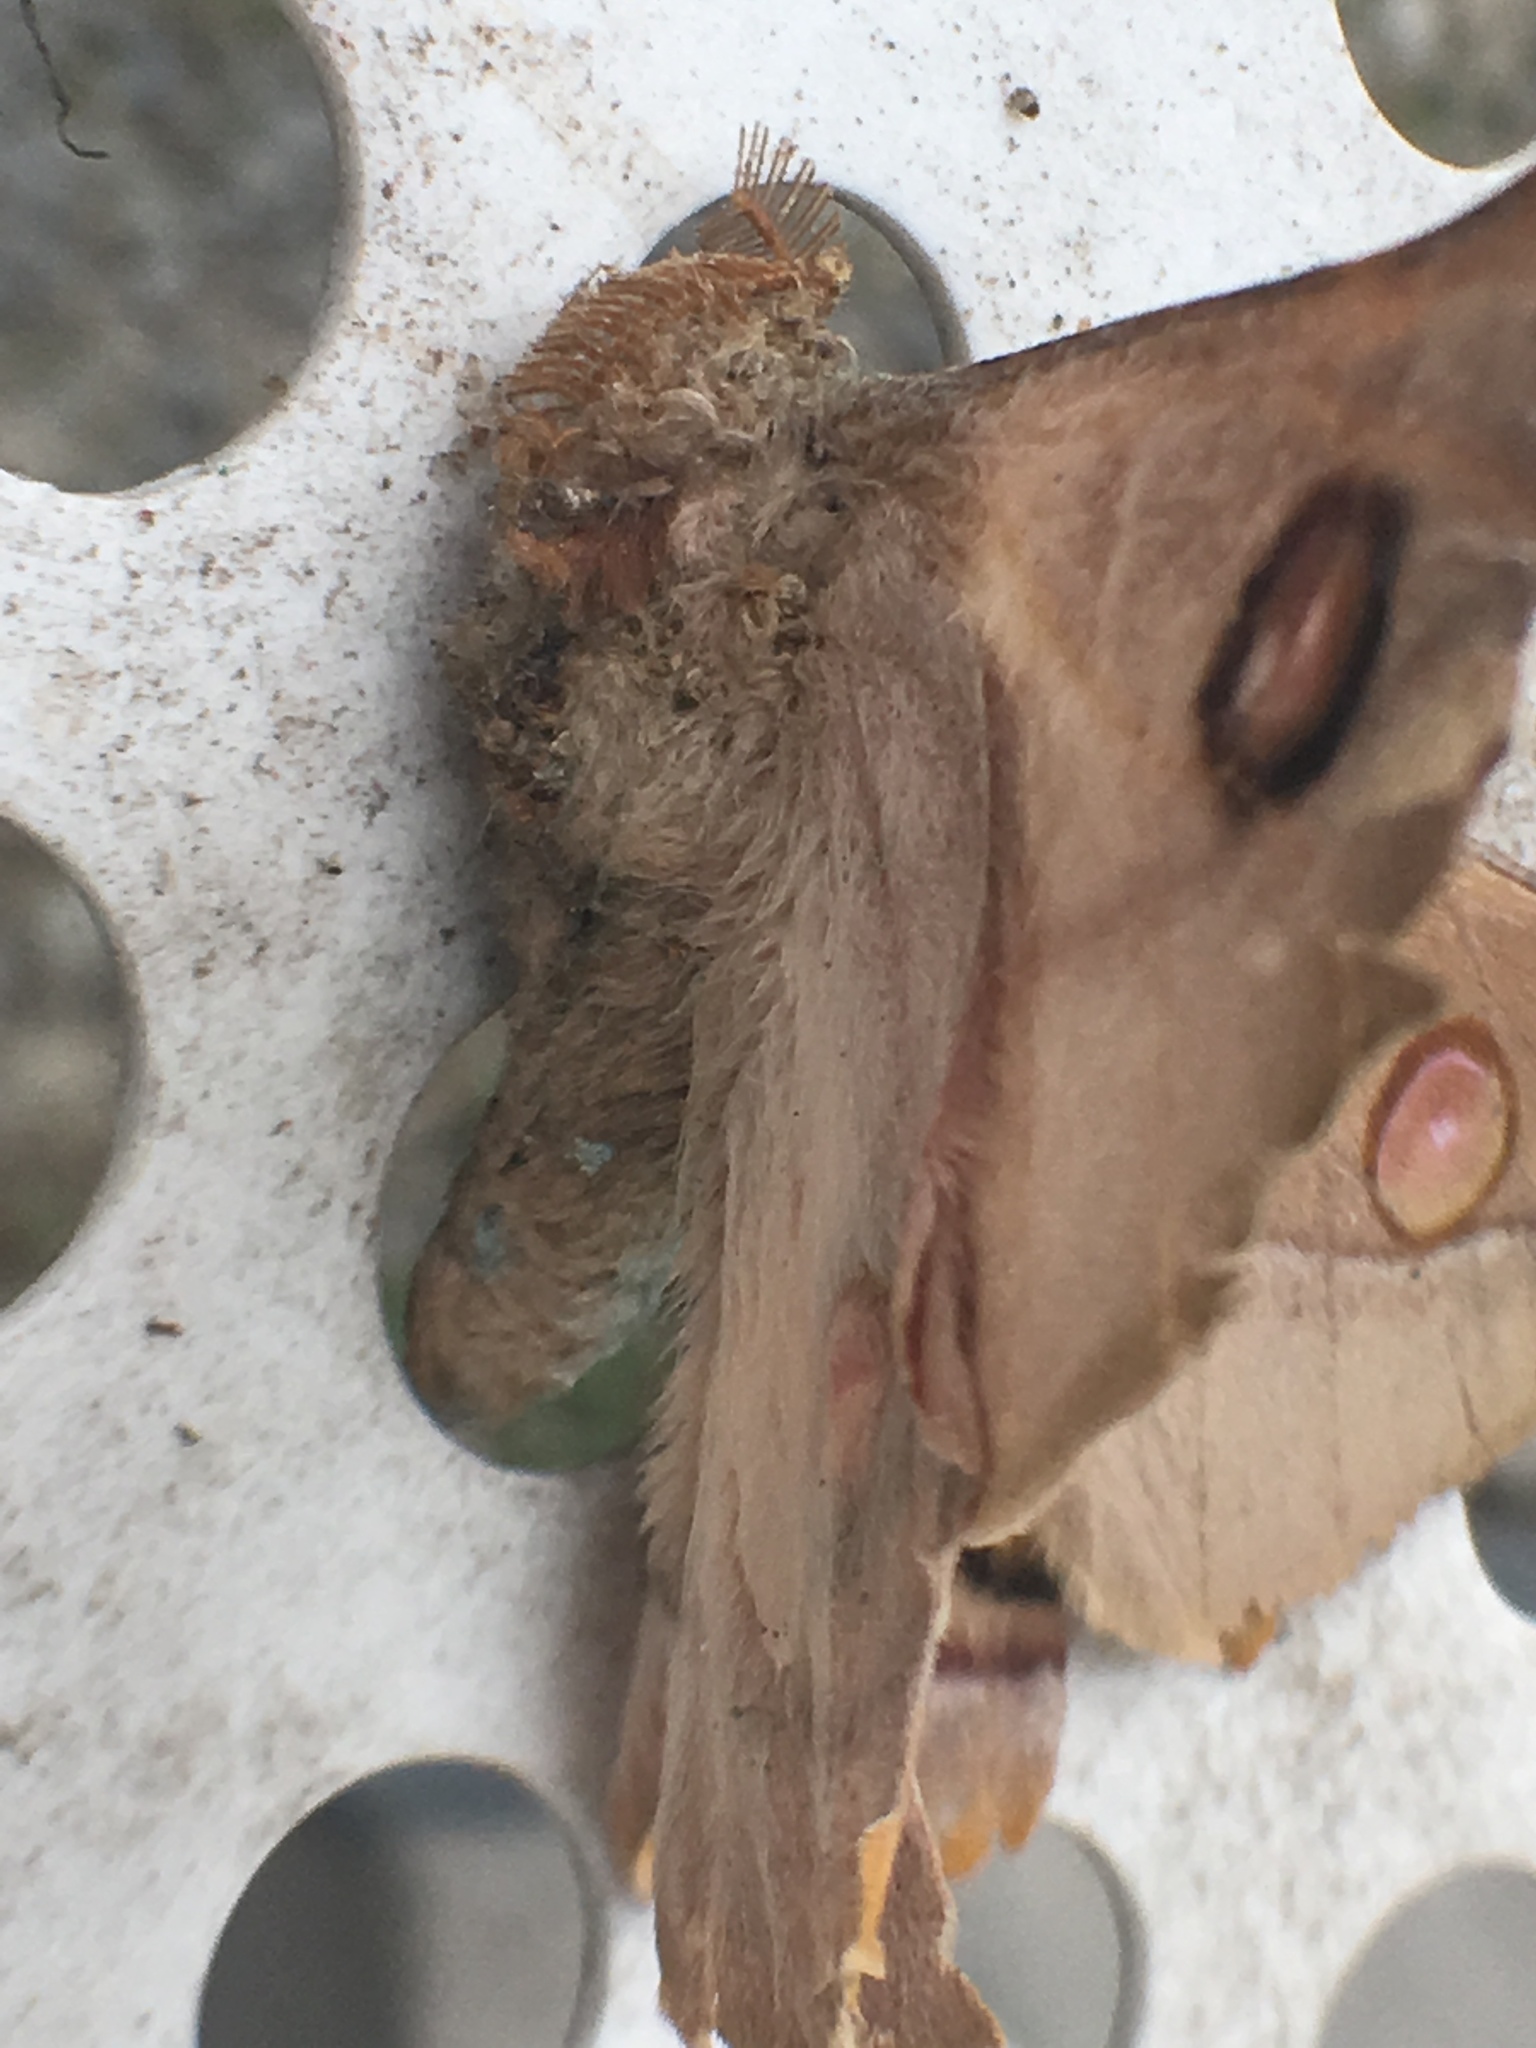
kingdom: Animalia
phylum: Arthropoda
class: Insecta
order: Lepidoptera
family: Saturniidae
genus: Opodiphthera
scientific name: Opodiphthera
